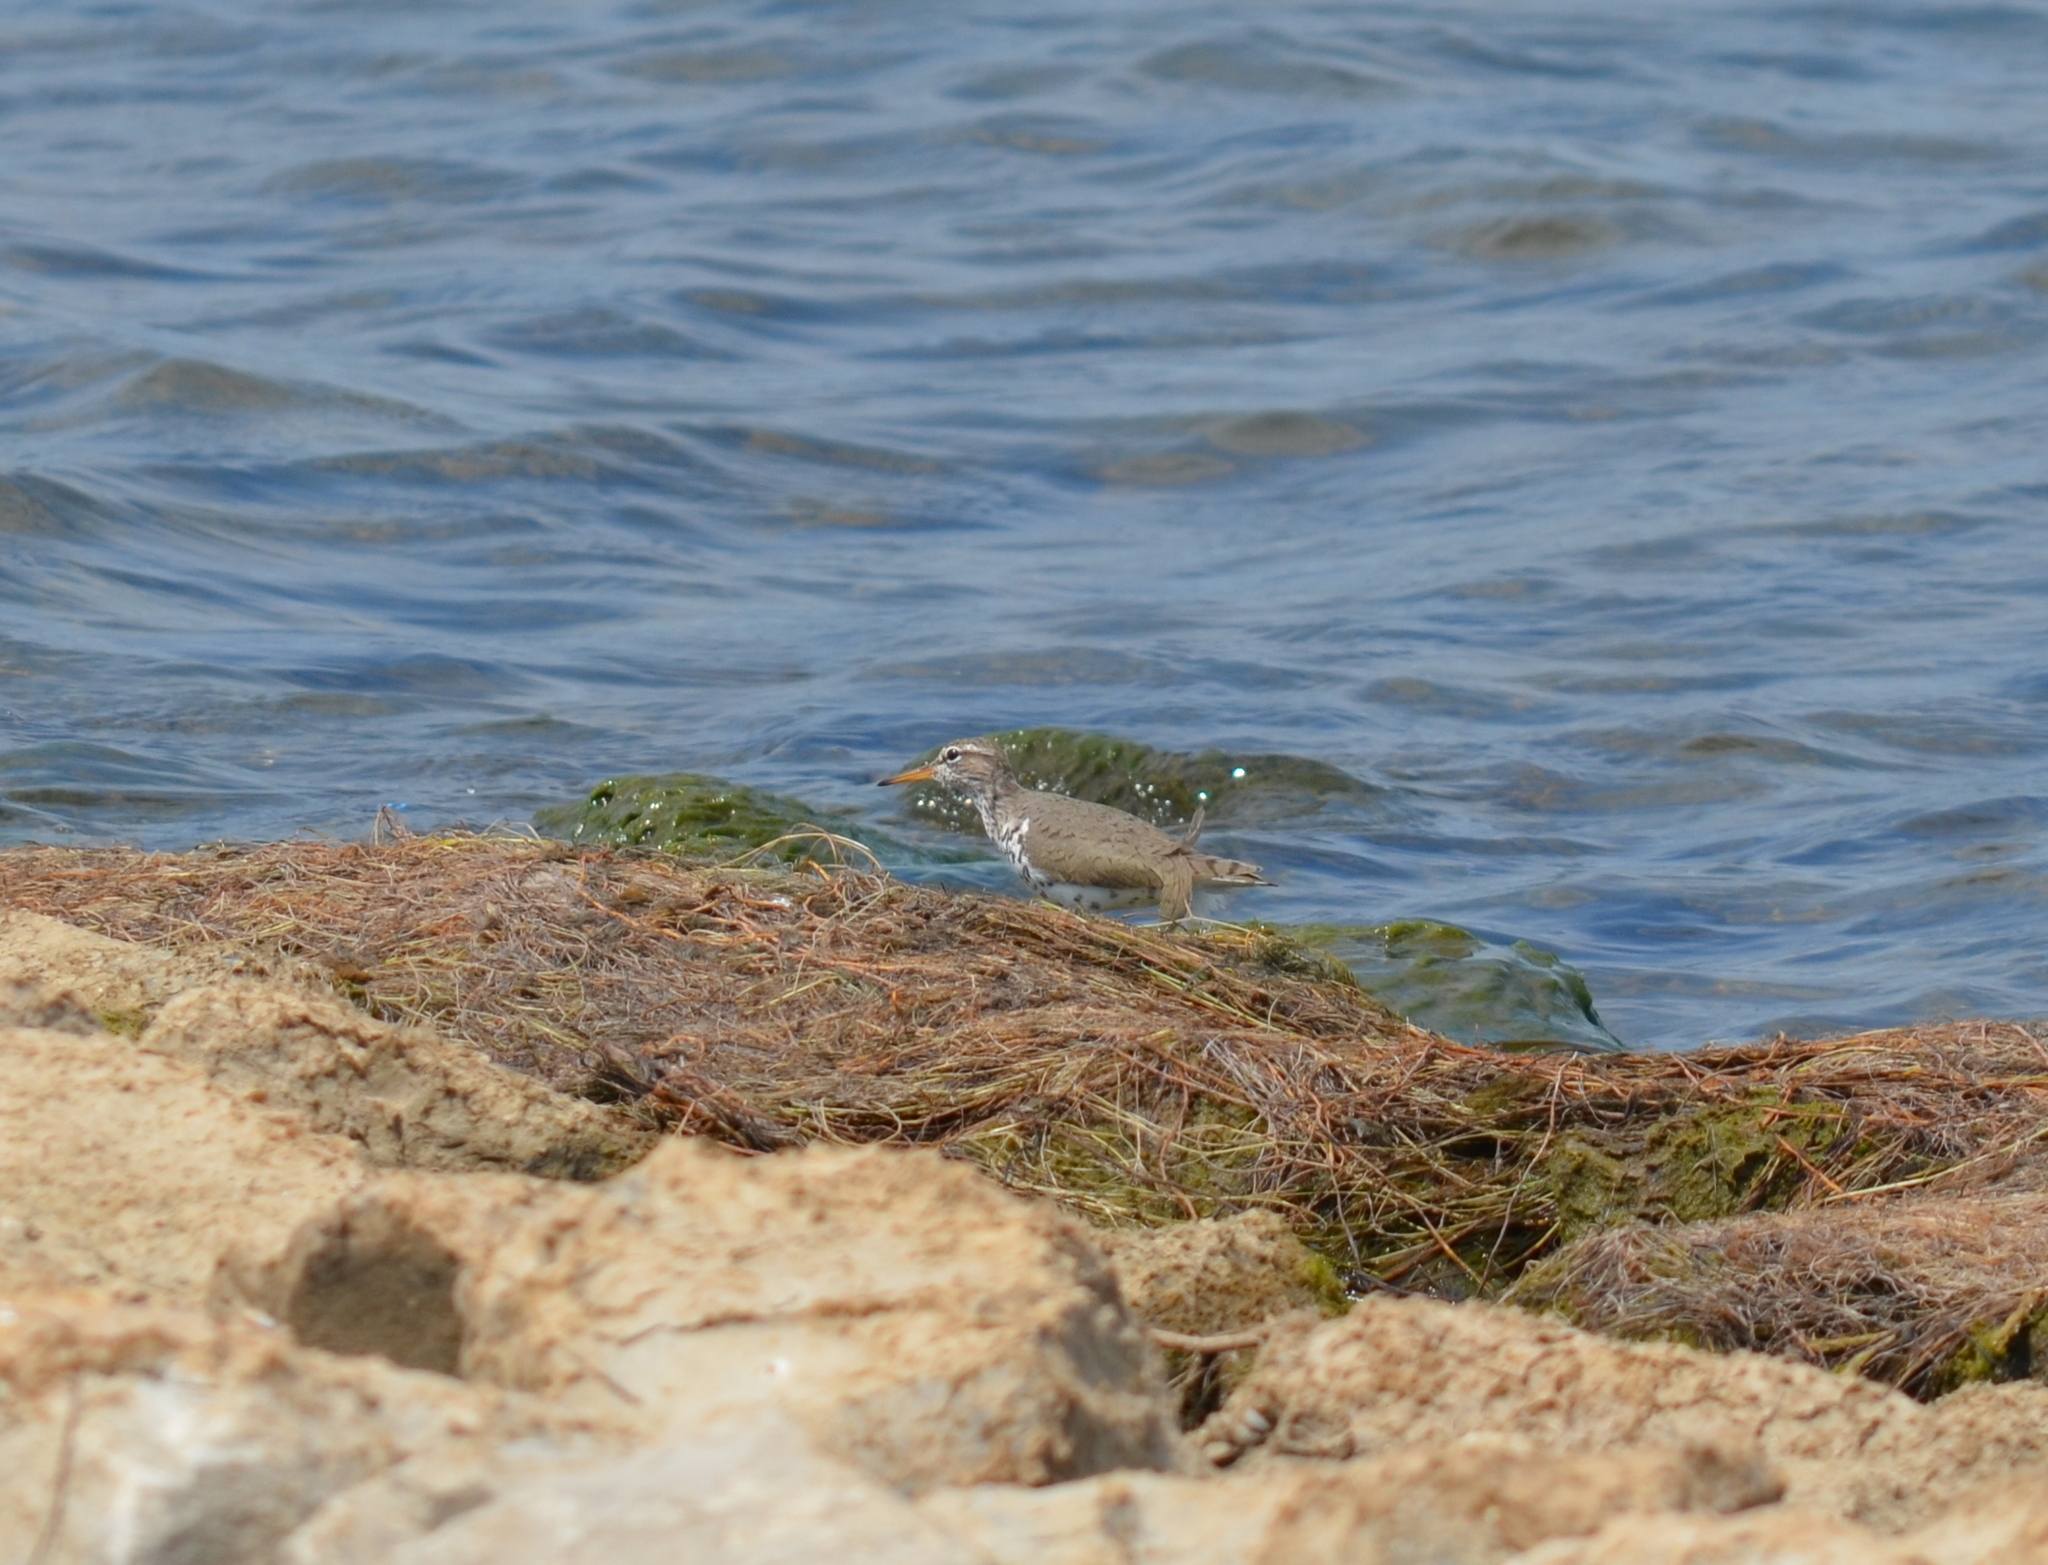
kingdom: Animalia
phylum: Chordata
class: Aves
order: Charadriiformes
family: Scolopacidae
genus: Actitis
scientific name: Actitis macularius
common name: Spotted sandpiper
